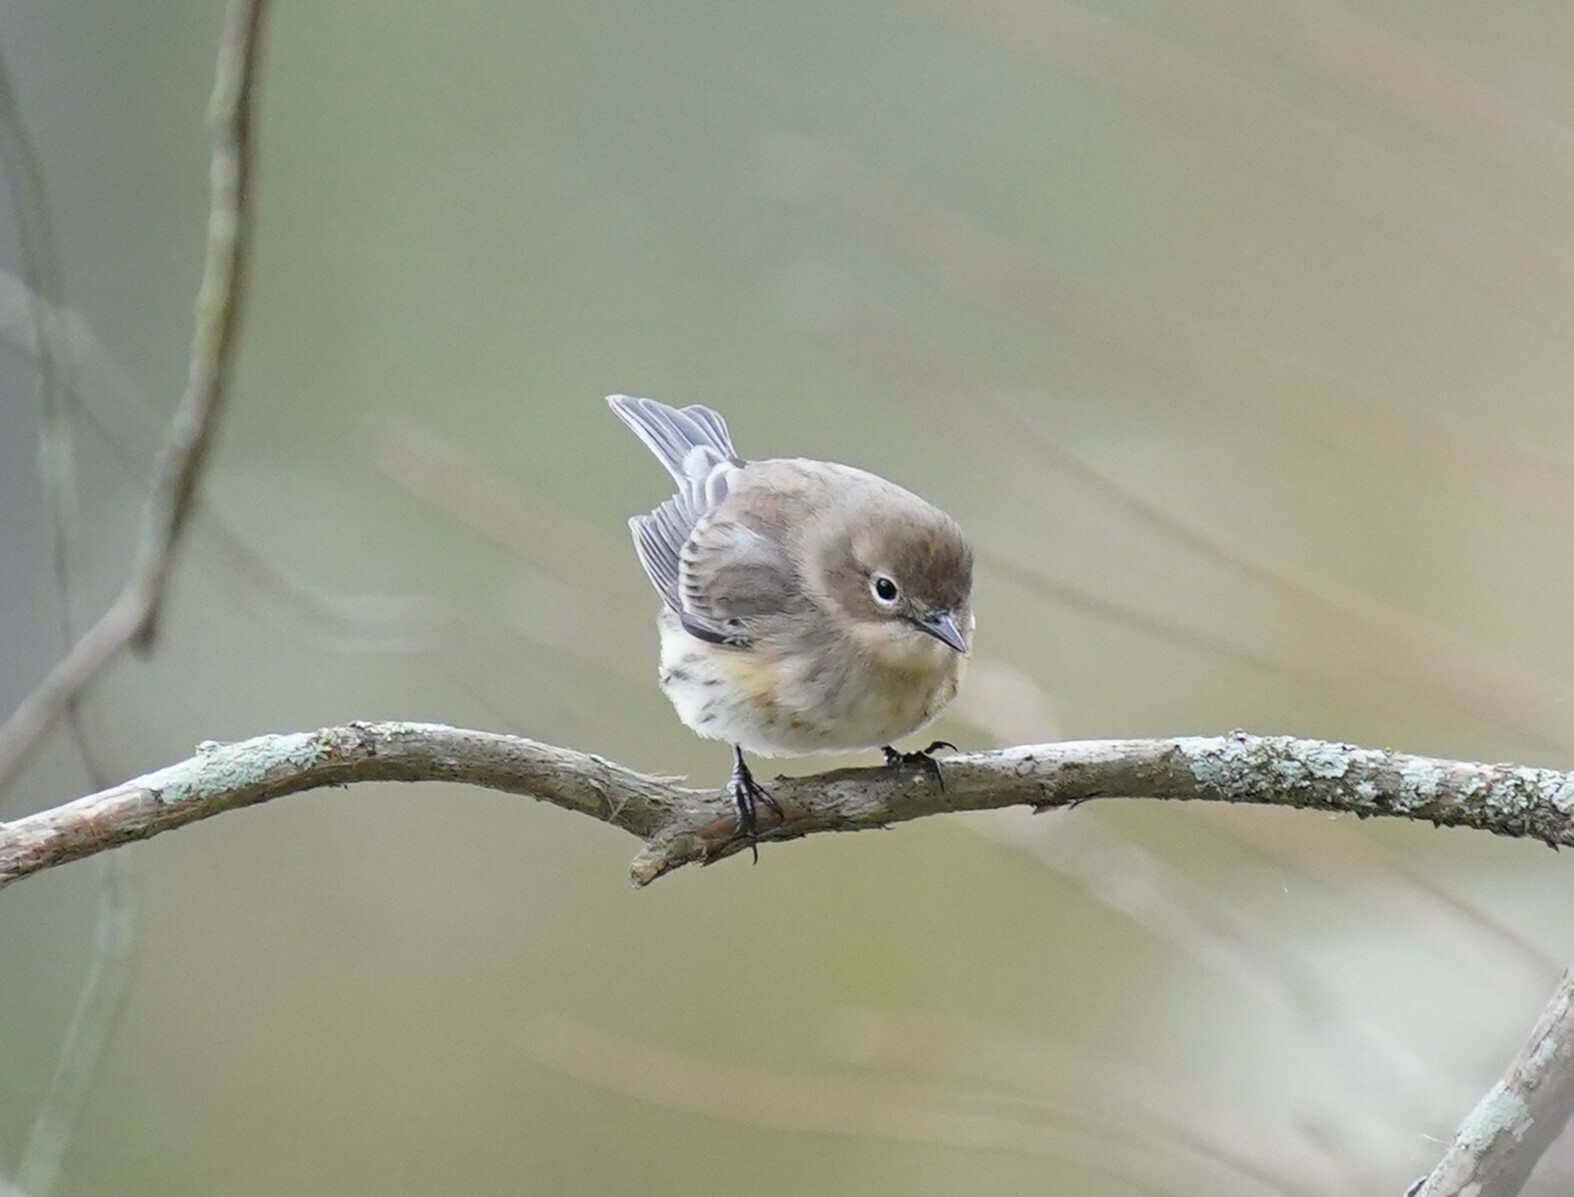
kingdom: Animalia
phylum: Chordata
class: Aves
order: Passeriformes
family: Parulidae
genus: Setophaga
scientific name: Setophaga coronata
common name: Myrtle warbler
